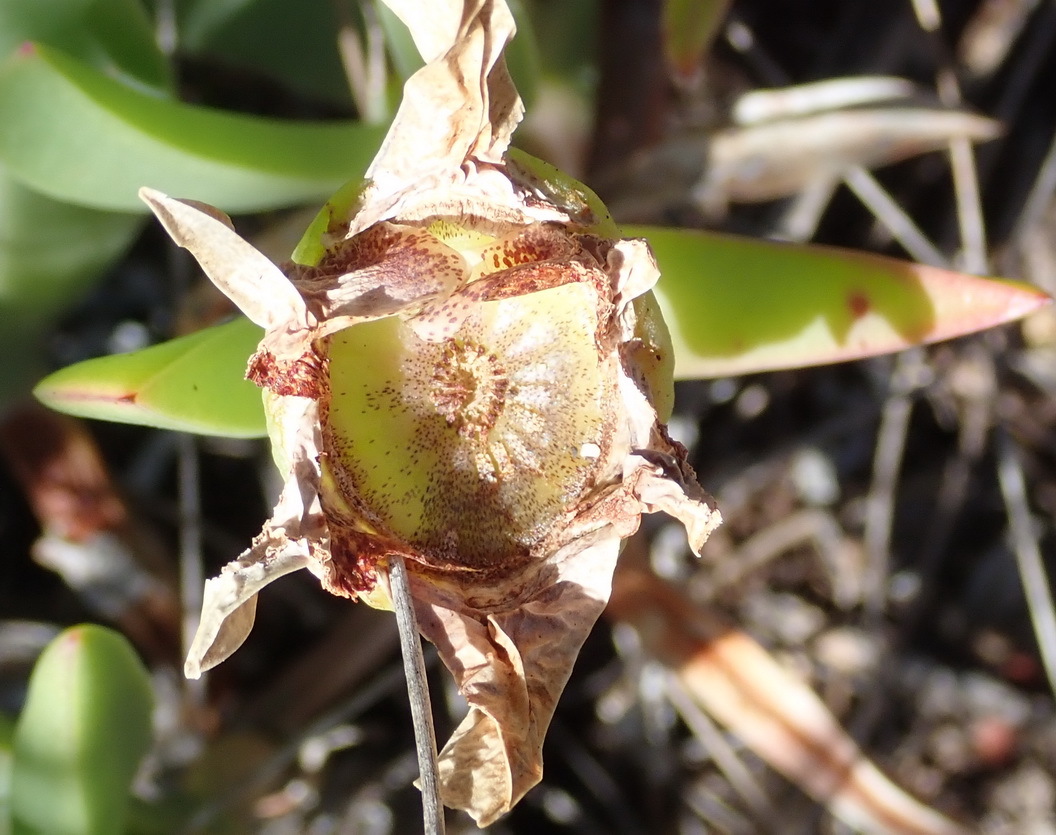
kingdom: Plantae
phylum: Tracheophyta
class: Magnoliopsida
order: Caryophyllales
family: Aizoaceae
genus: Carpobrotus
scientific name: Carpobrotus acinaciformis
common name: Sally-my-handsome
